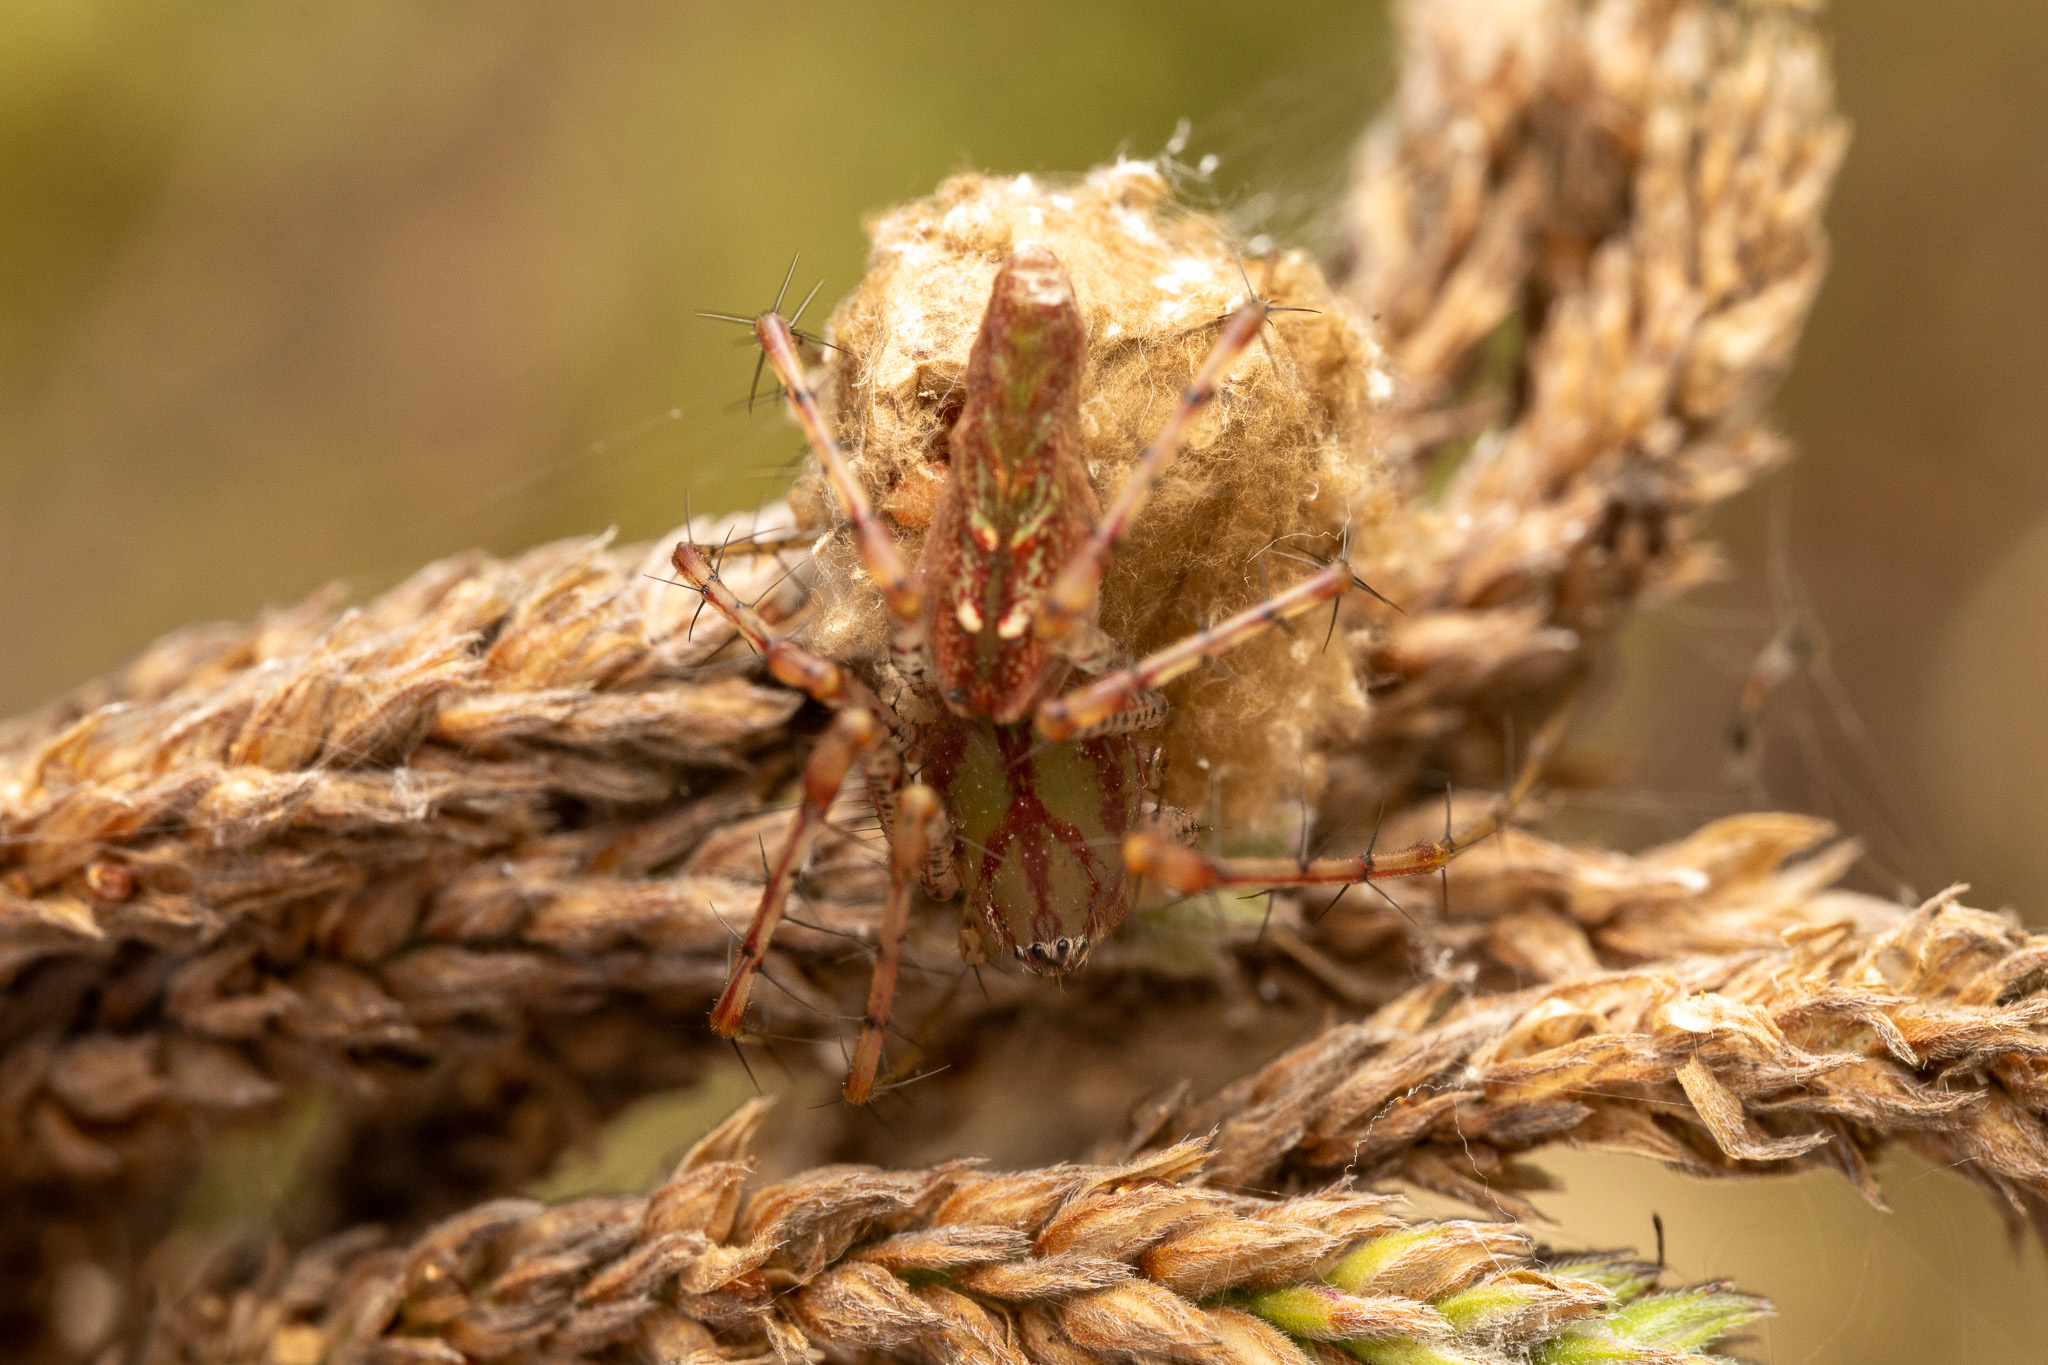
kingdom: Animalia
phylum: Arthropoda
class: Arachnida
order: Araneae
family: Oxyopidae
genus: Peucetia
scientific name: Peucetia viridans
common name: Lynx spiders
